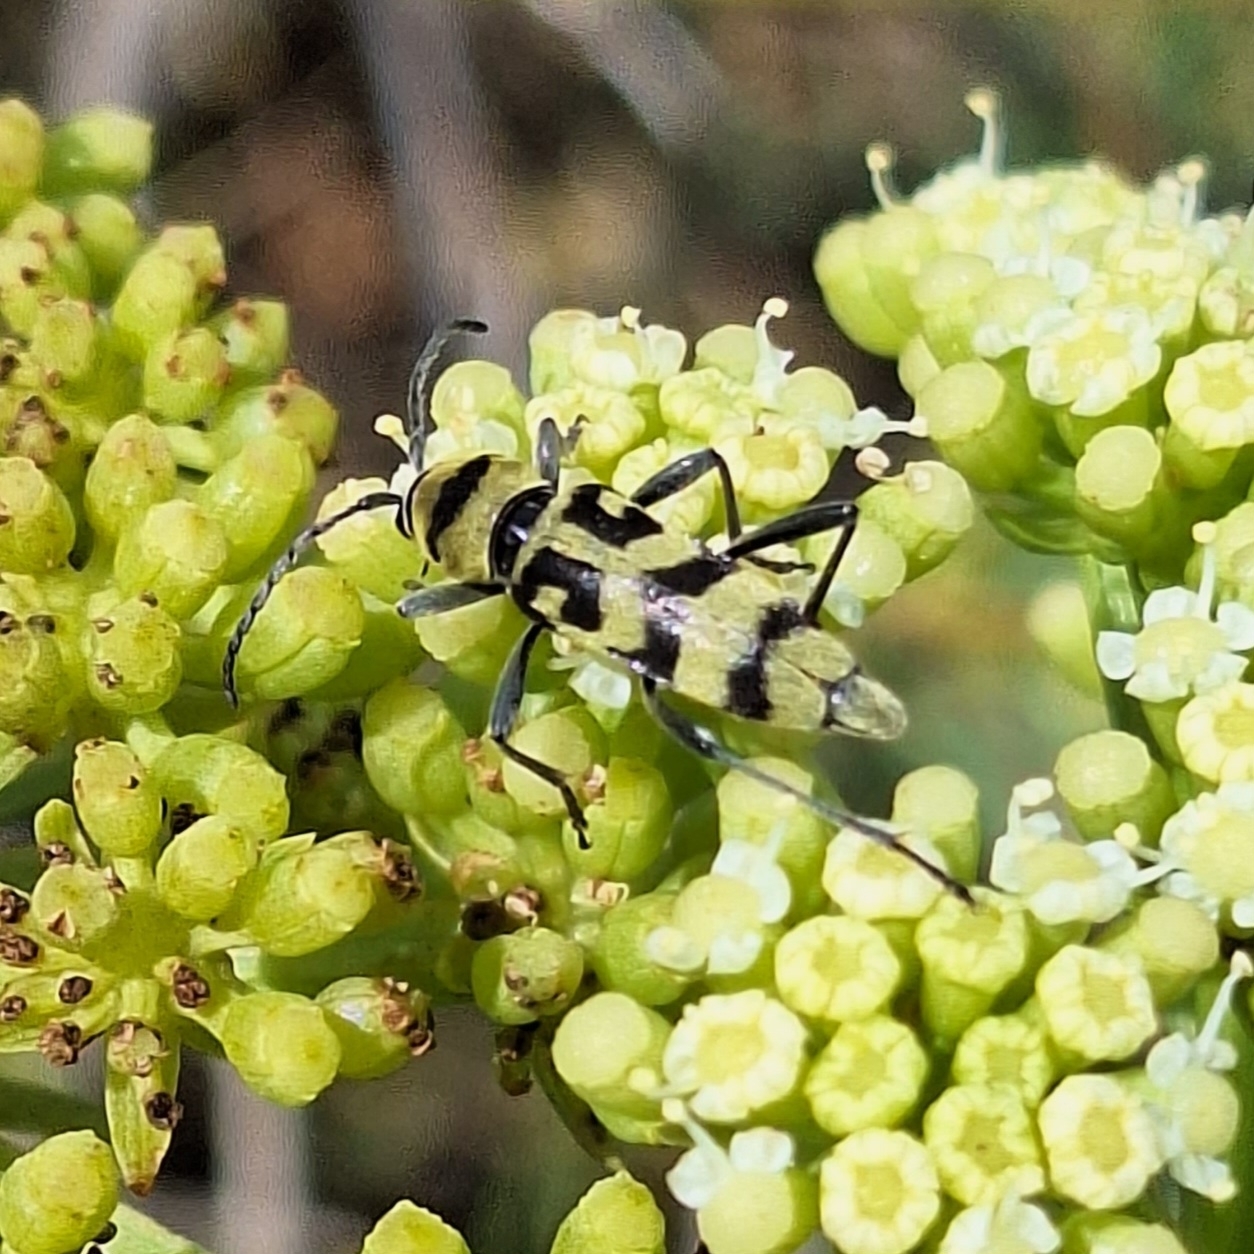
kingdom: Animalia
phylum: Arthropoda
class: Insecta
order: Coleoptera
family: Cerambycidae
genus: Chlorophorus
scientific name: Chlorophorus varius
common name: Grape wood borer
